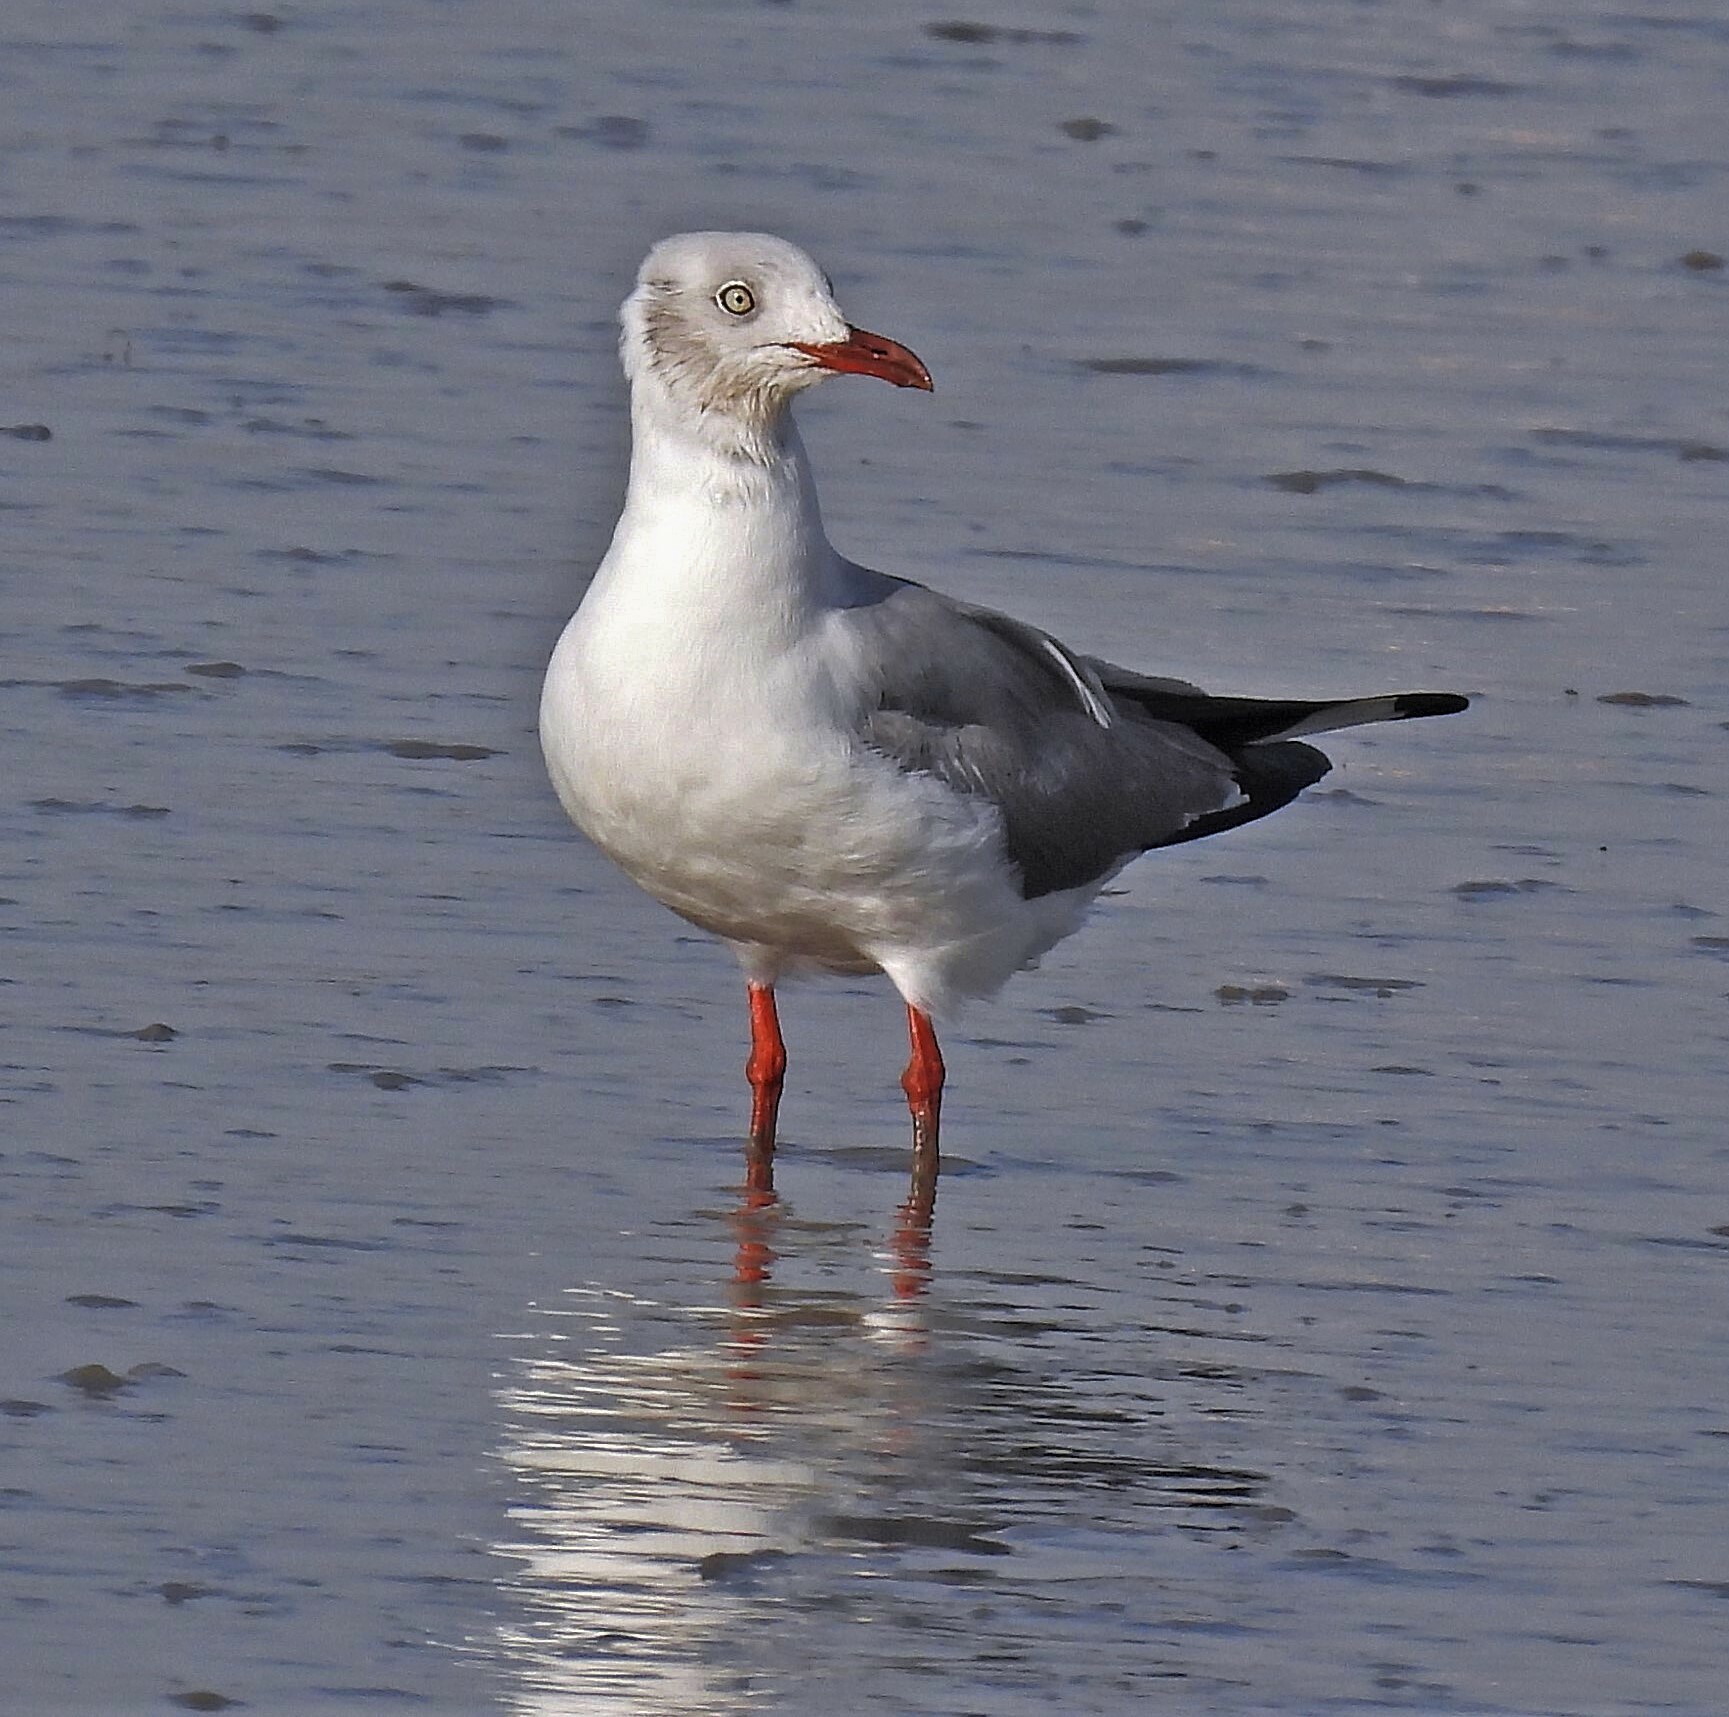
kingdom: Animalia
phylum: Chordata
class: Aves
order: Charadriiformes
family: Laridae
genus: Chroicocephalus
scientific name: Chroicocephalus cirrocephalus
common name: Grey-headed gull
